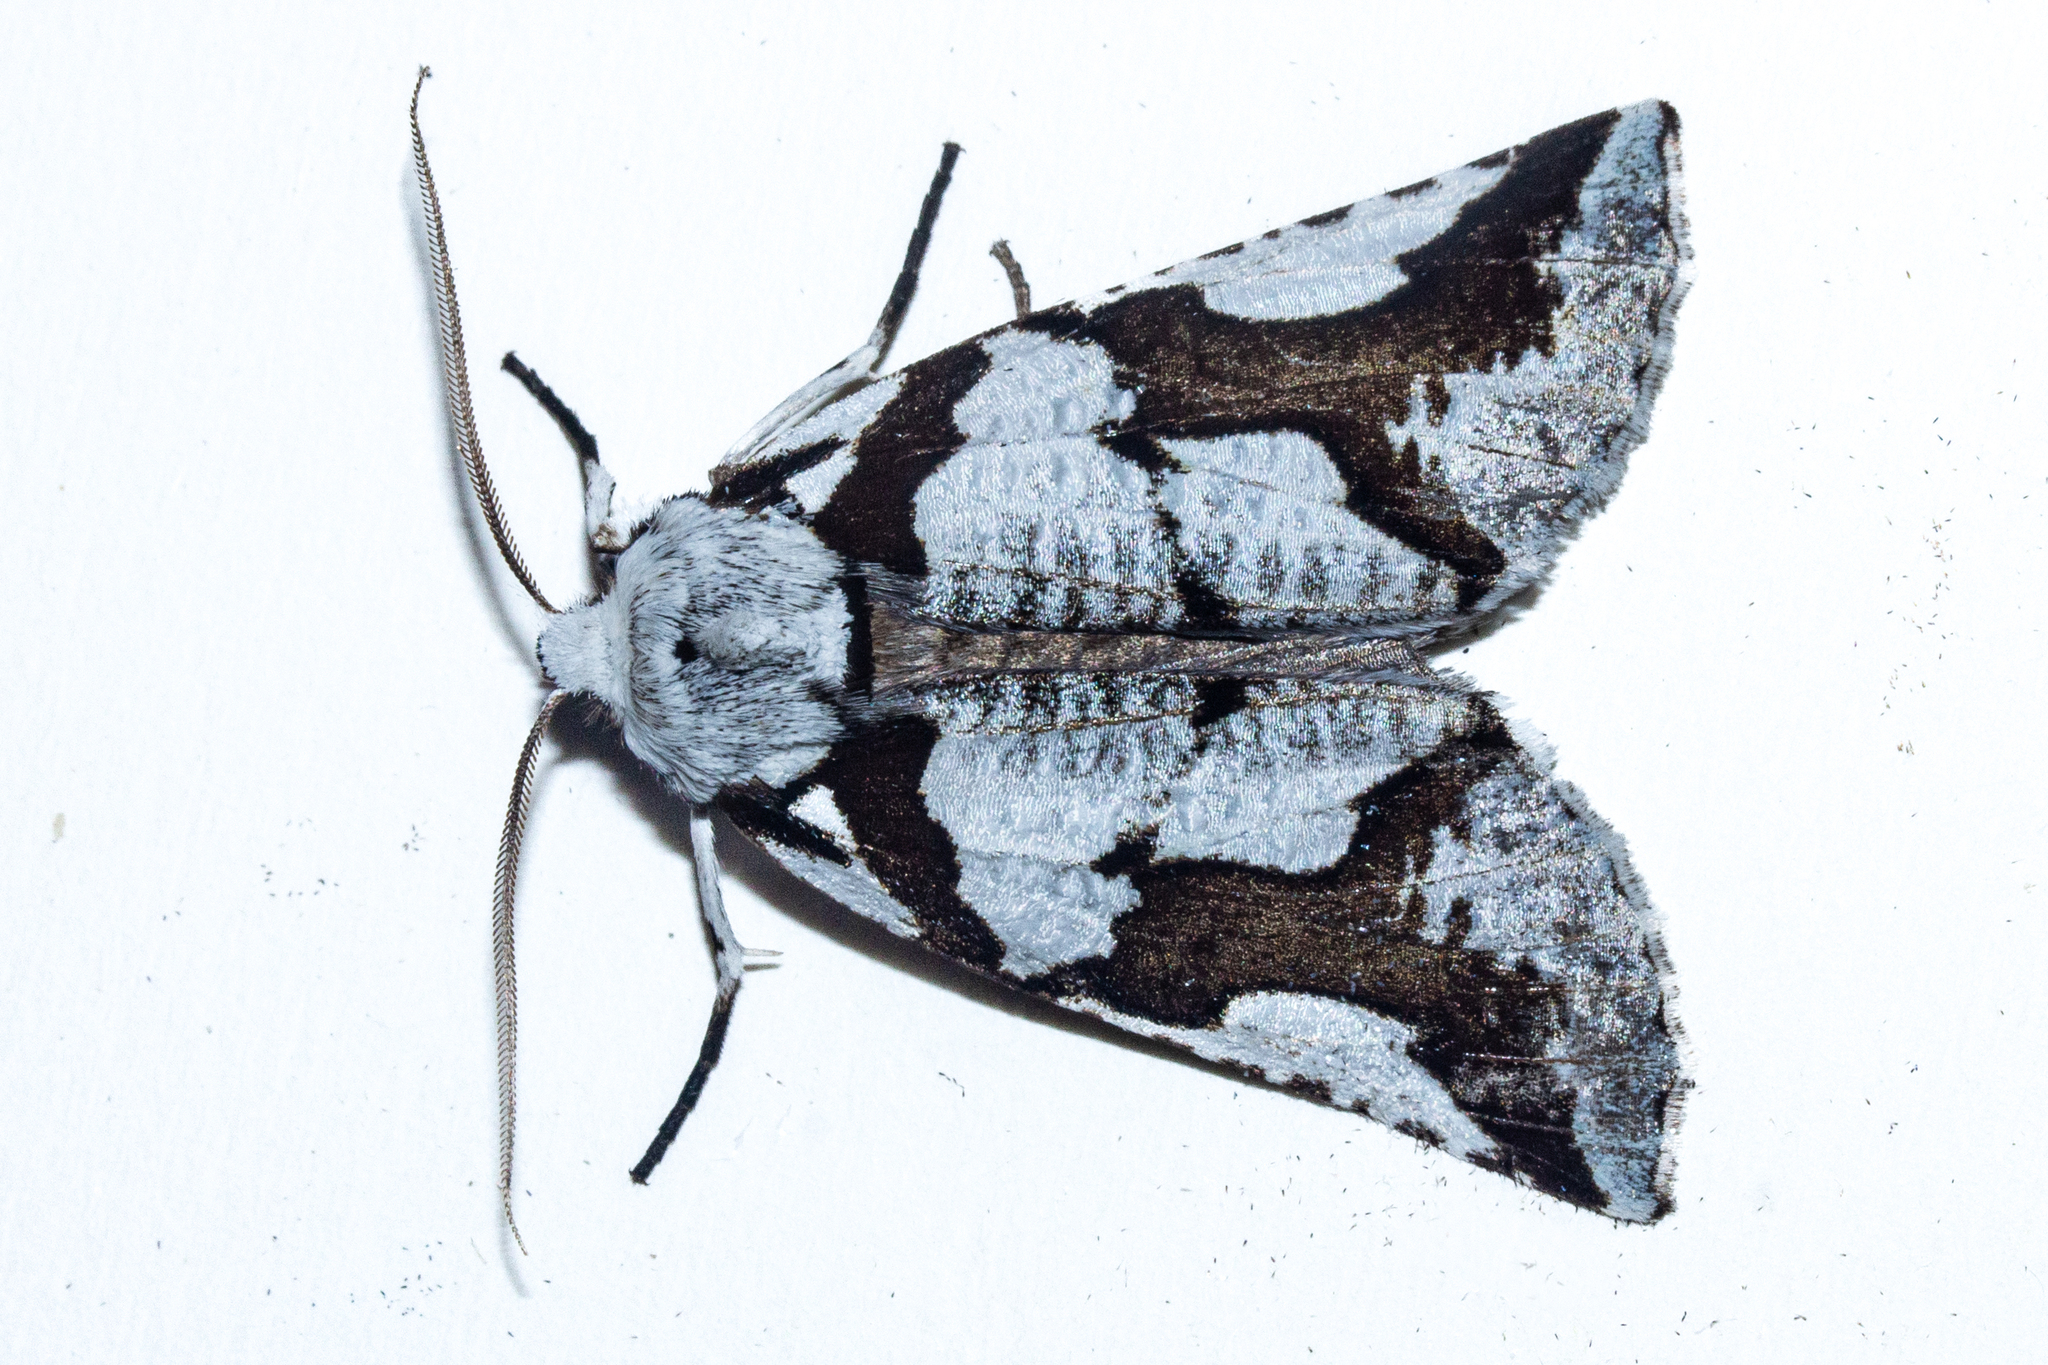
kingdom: Animalia
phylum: Arthropoda
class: Insecta
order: Lepidoptera
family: Geometridae
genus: Declana
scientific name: Declana
